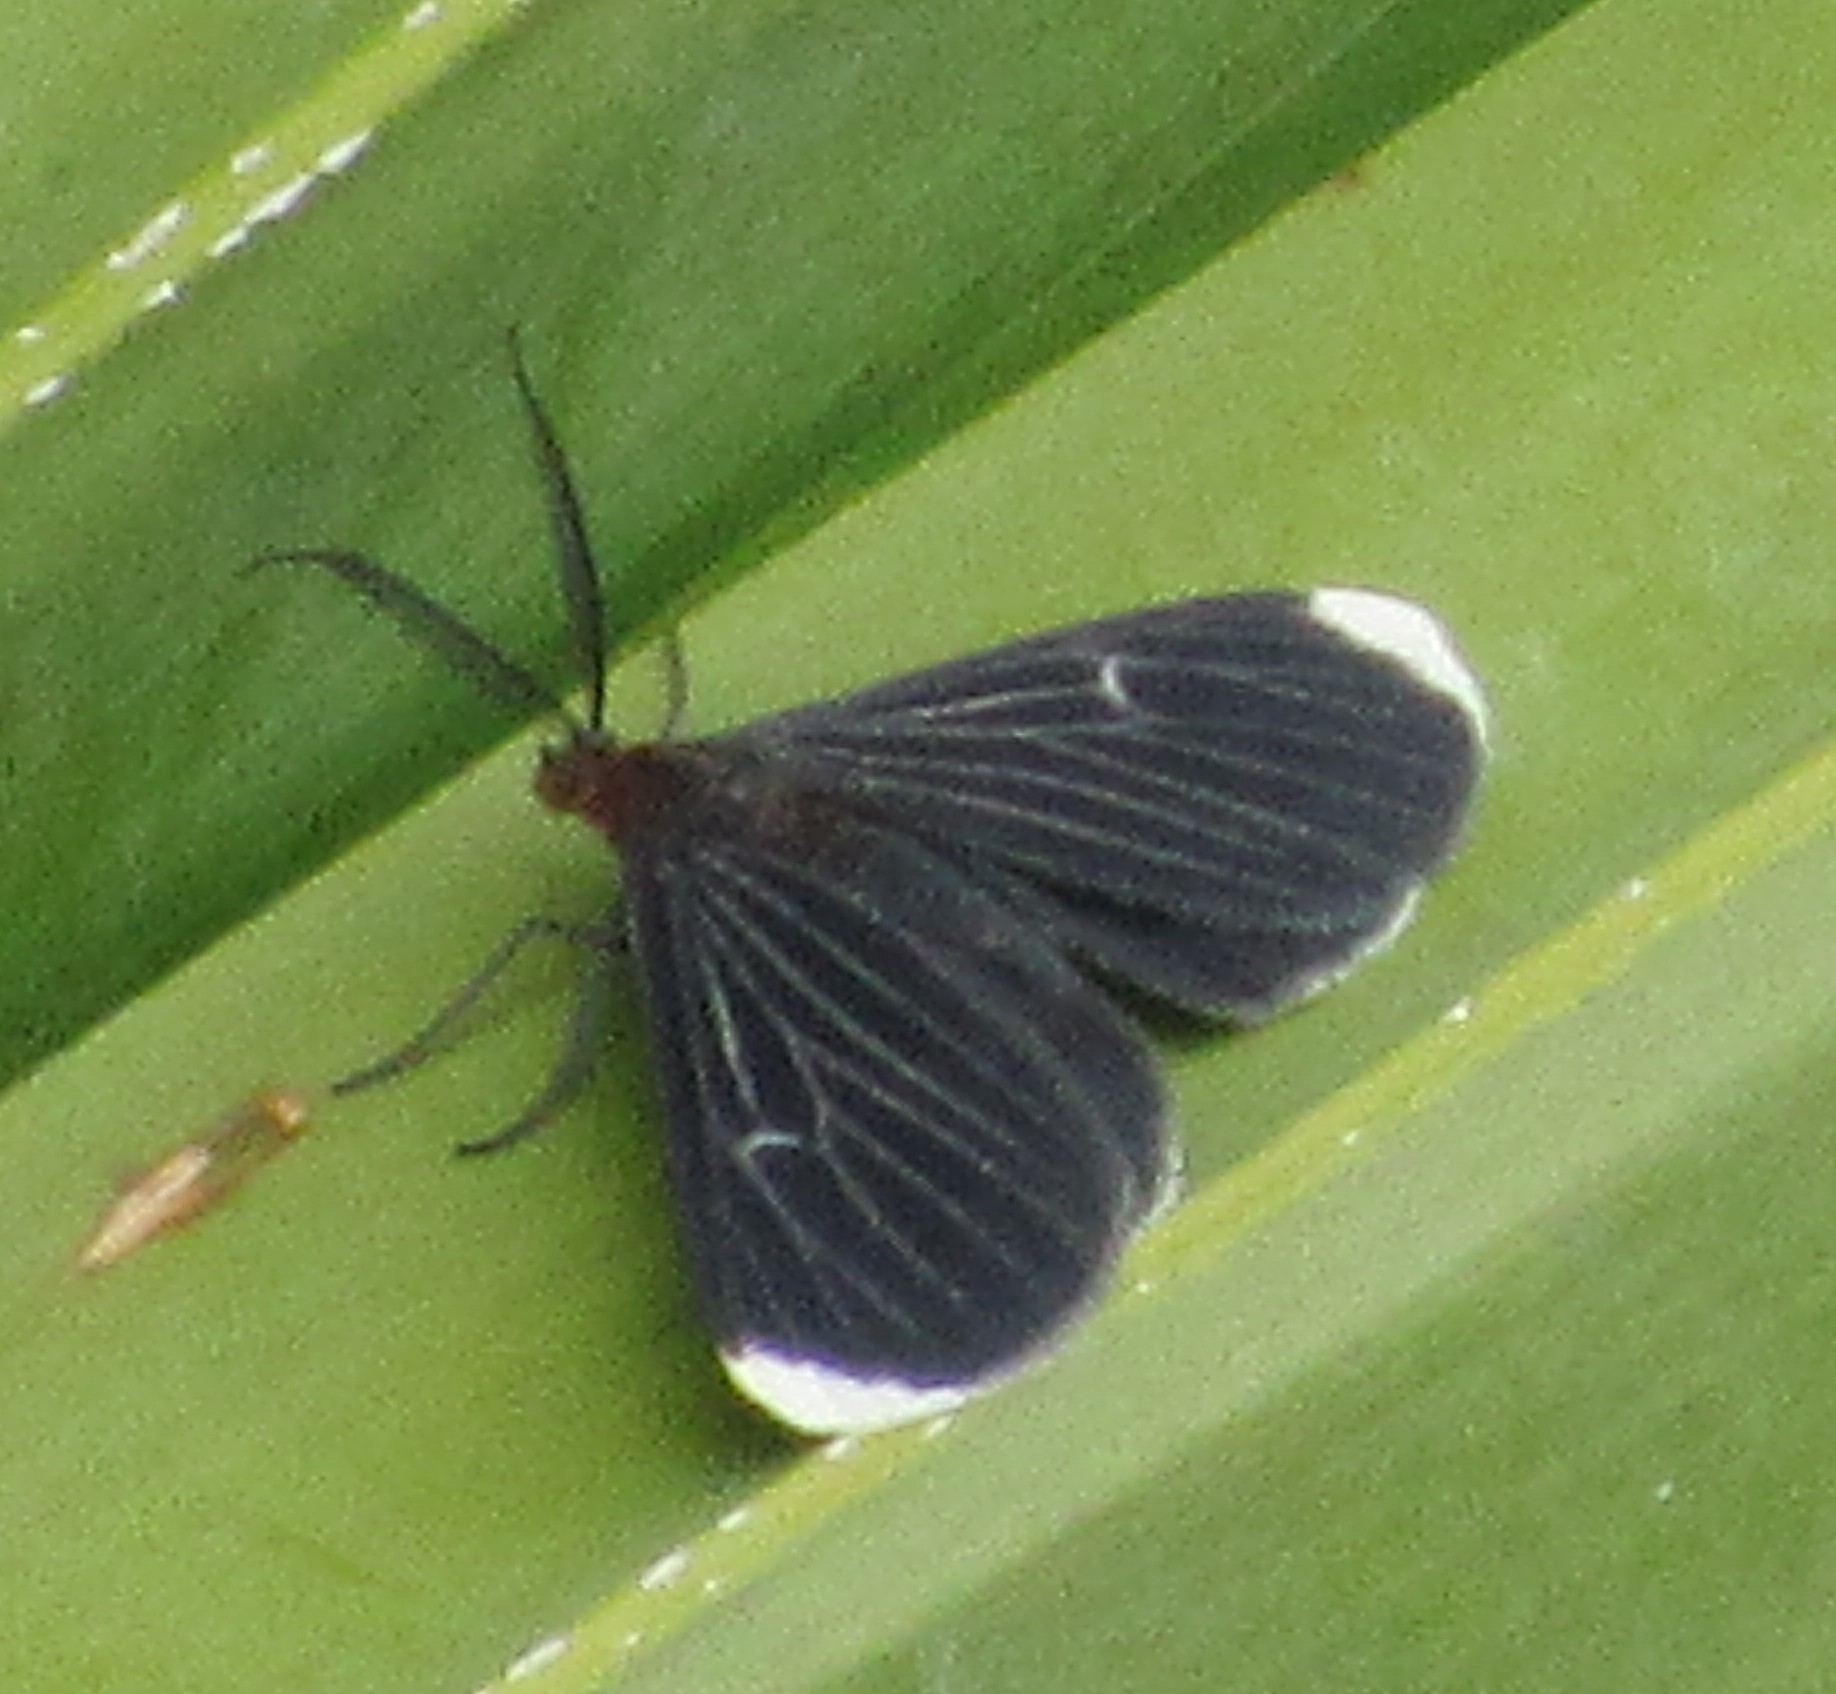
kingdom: Animalia
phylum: Arthropoda
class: Insecta
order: Lepidoptera
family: Geometridae
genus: Melanchroia
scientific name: Melanchroia chephise
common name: White-tipped black
